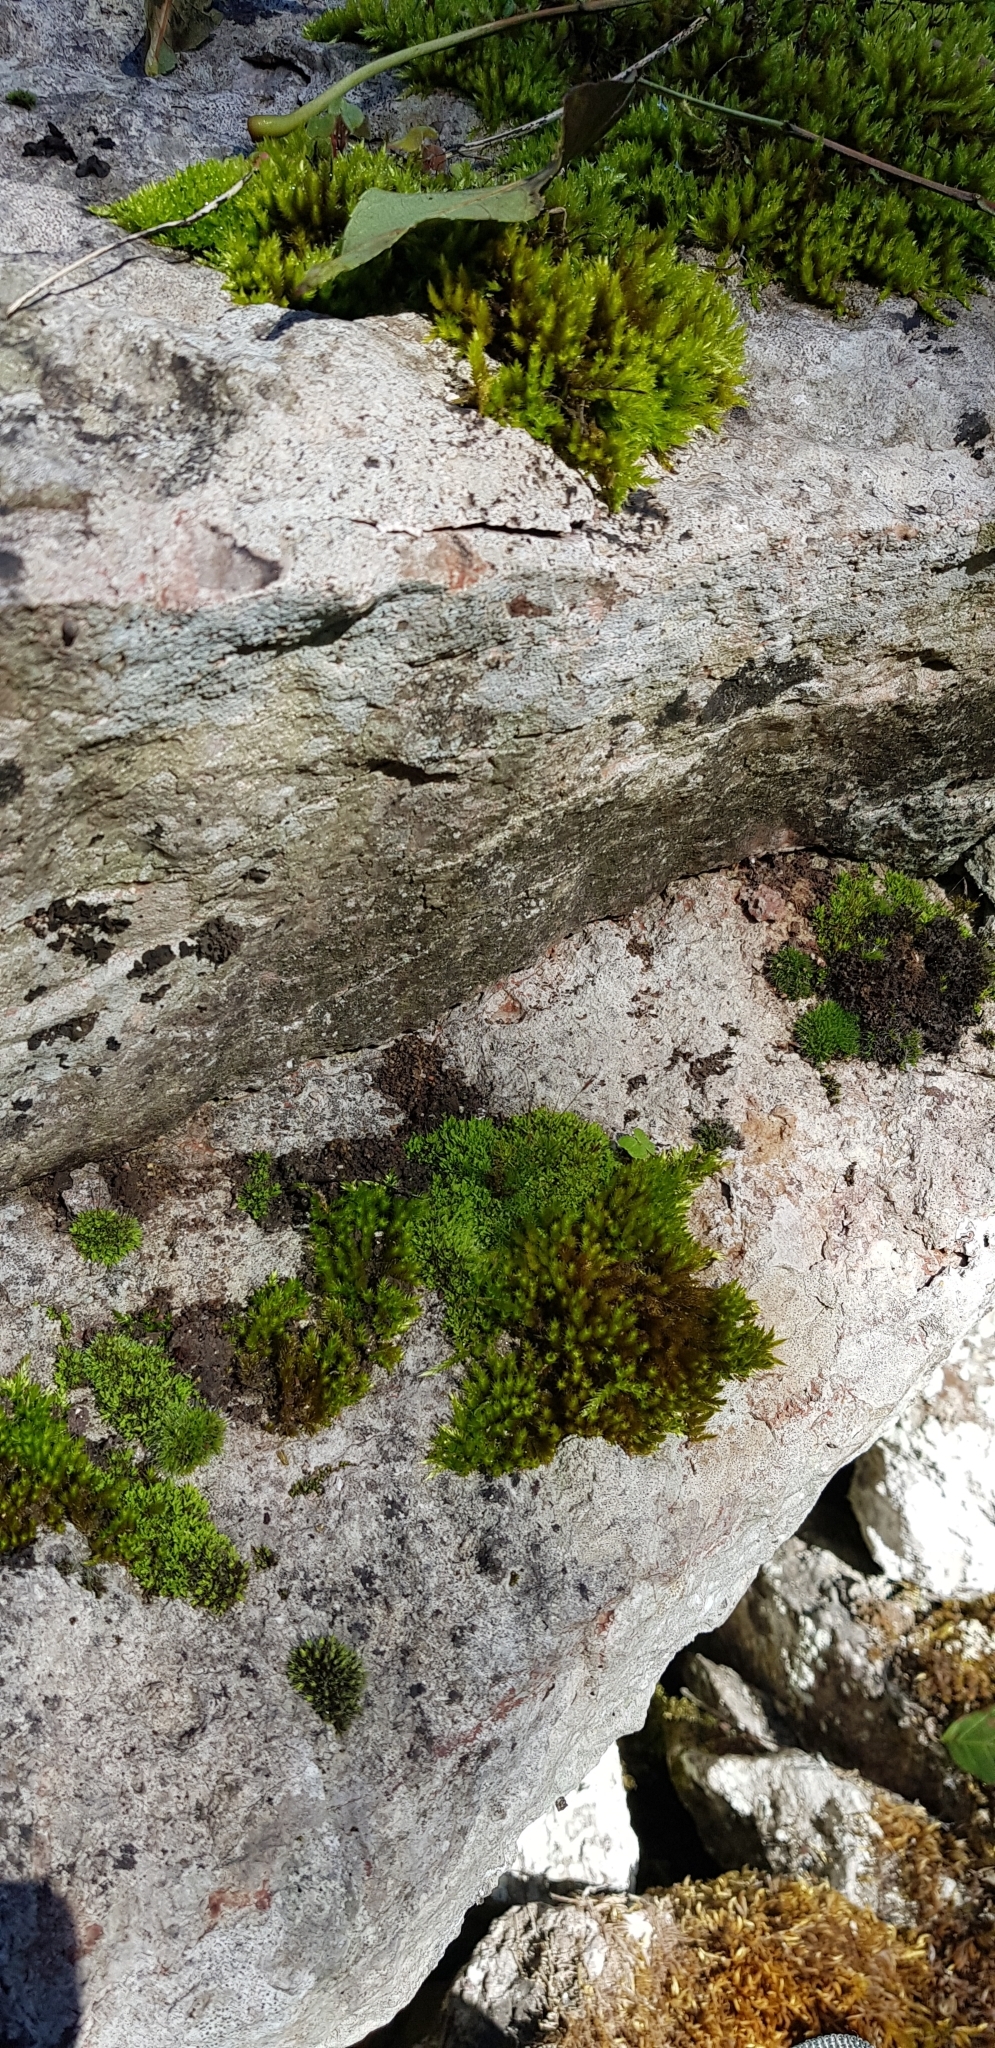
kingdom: Plantae
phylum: Bryophyta
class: Bryopsida
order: Pottiales
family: Pottiaceae
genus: Tortula
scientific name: Tortula muralis
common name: Wall screw-moss
